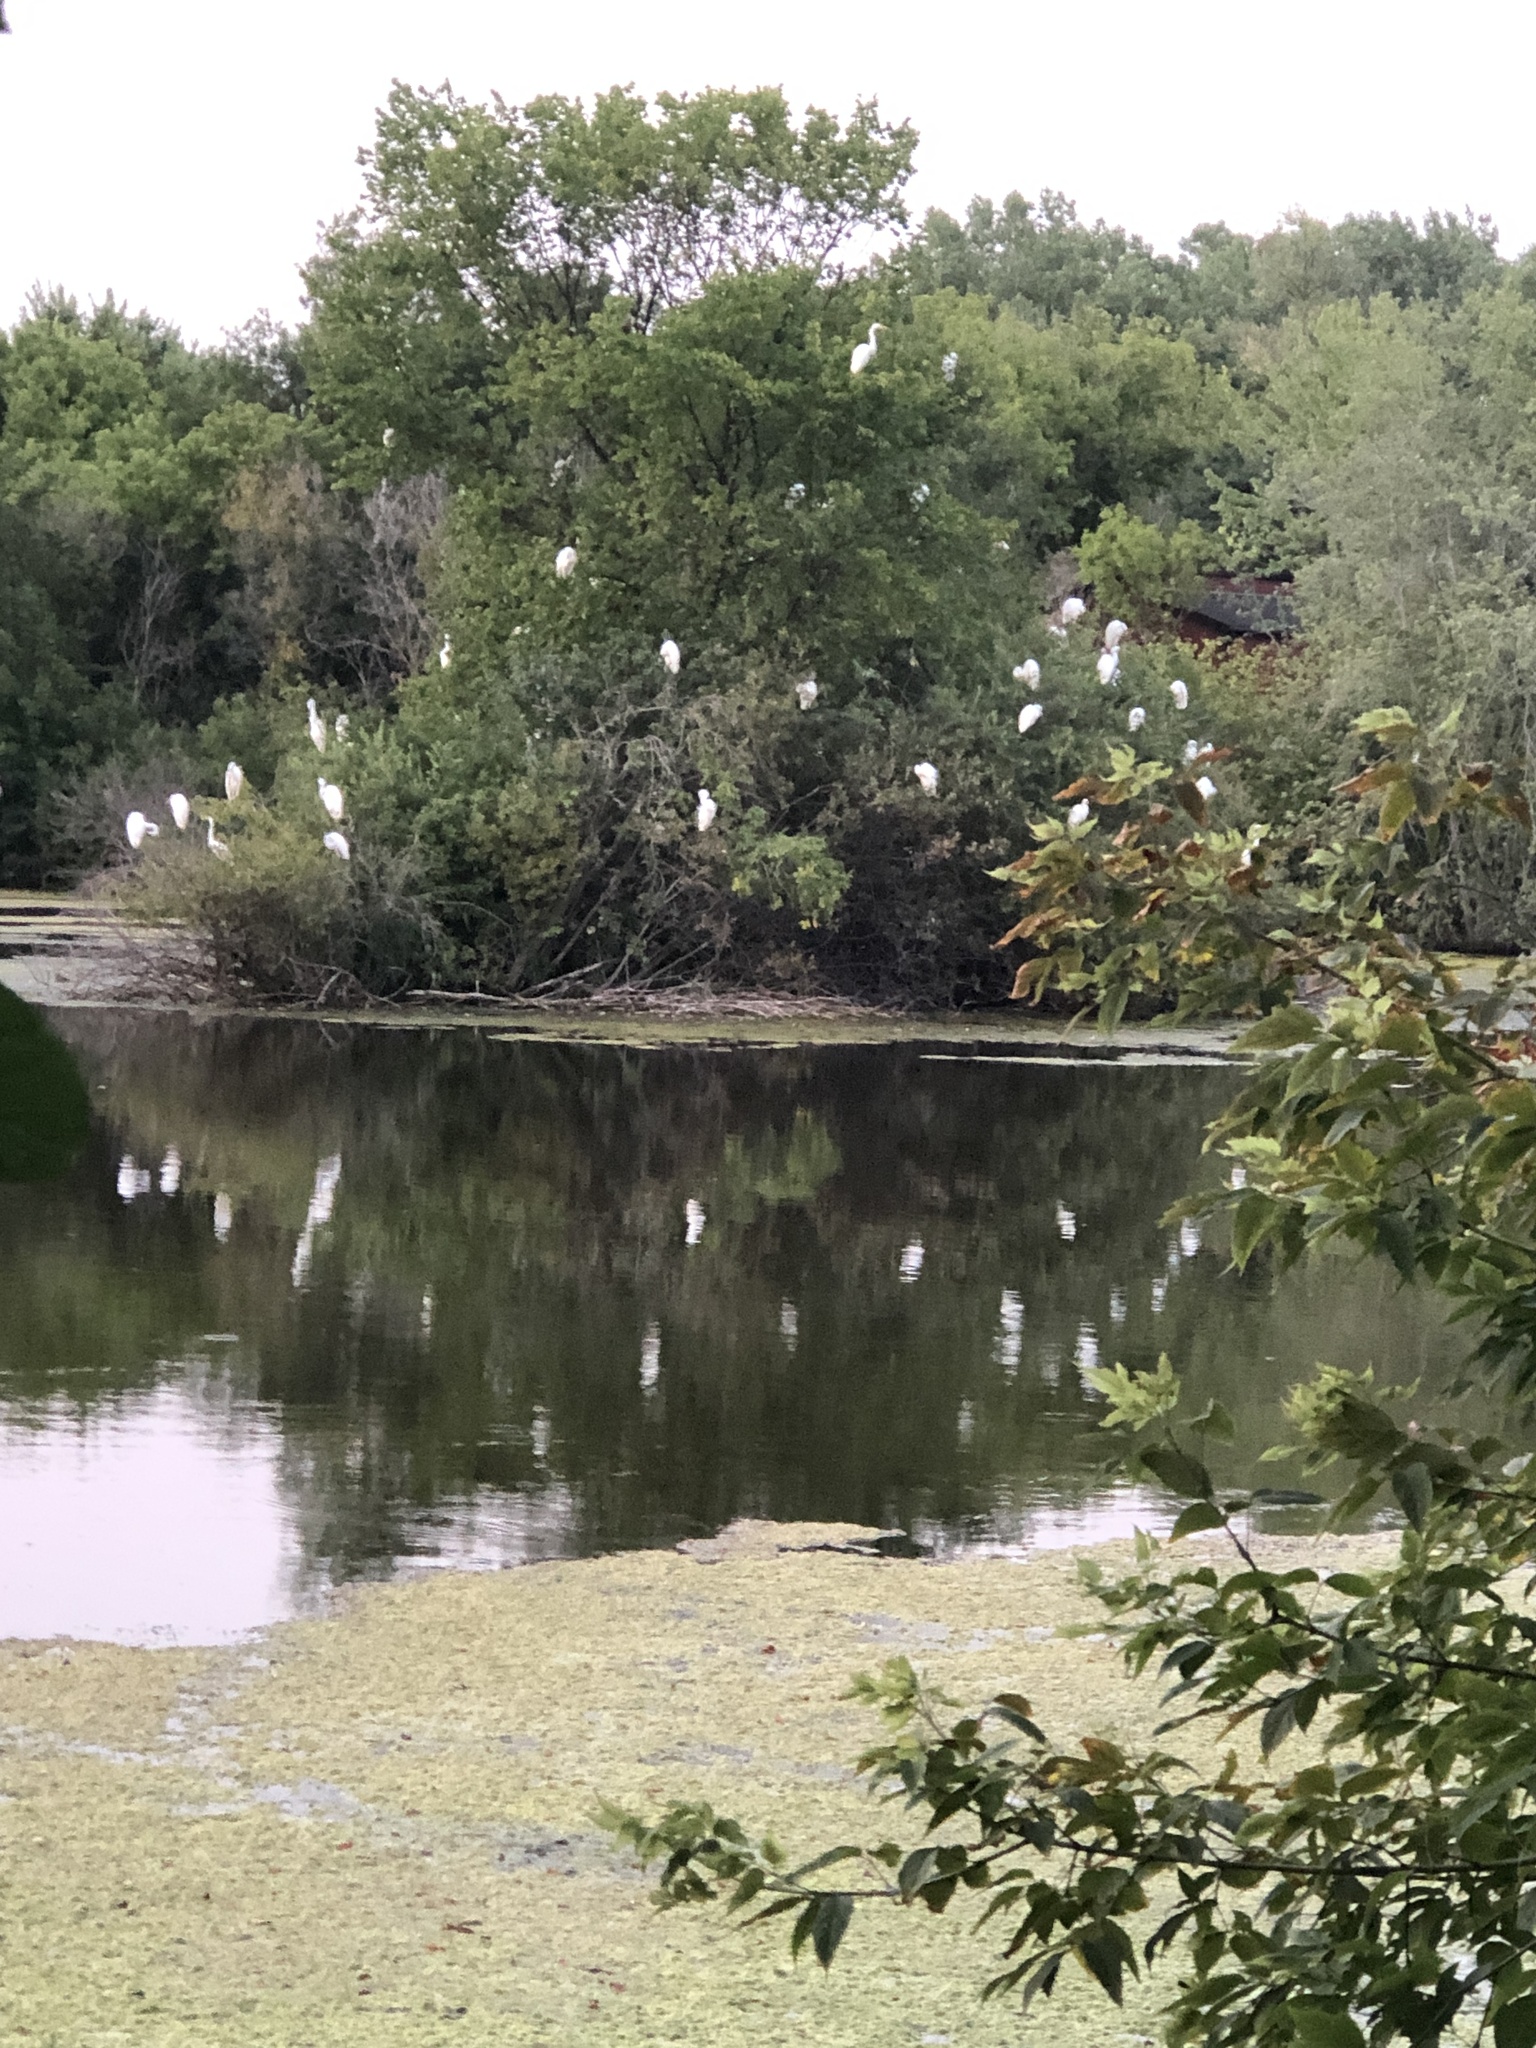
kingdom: Animalia
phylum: Chordata
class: Aves
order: Pelecaniformes
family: Ardeidae
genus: Ardea
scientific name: Ardea alba
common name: Great egret
